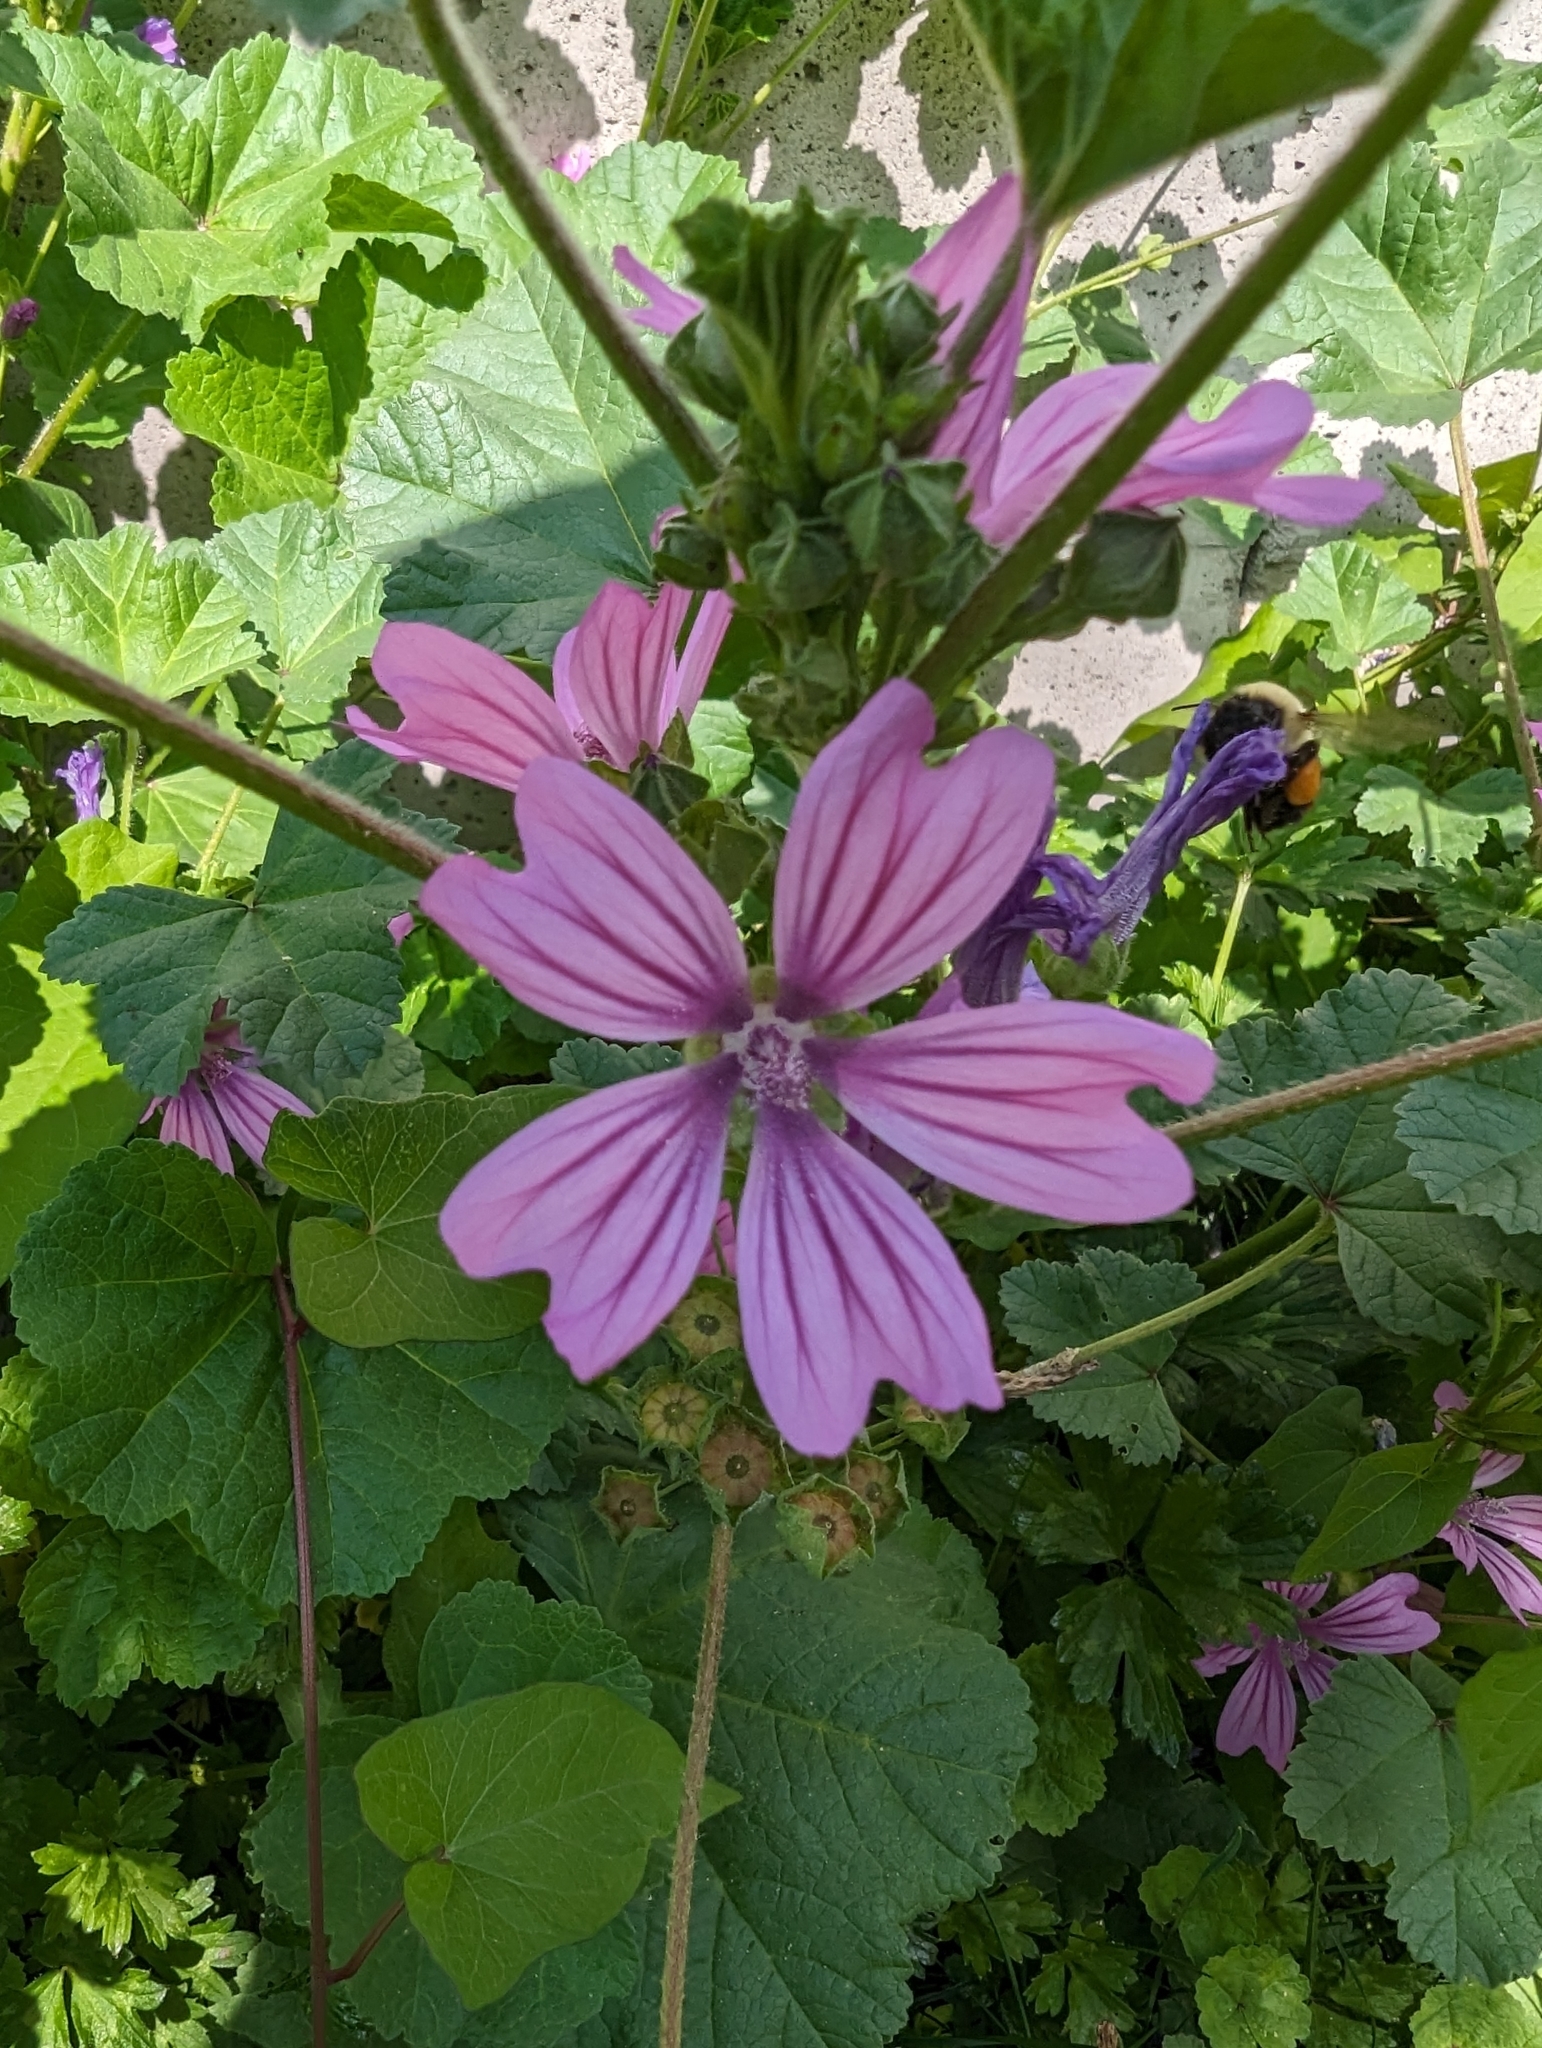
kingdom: Plantae
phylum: Tracheophyta
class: Magnoliopsida
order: Malvales
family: Malvaceae
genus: Malva
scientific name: Malva sylvestris
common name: Common mallow
